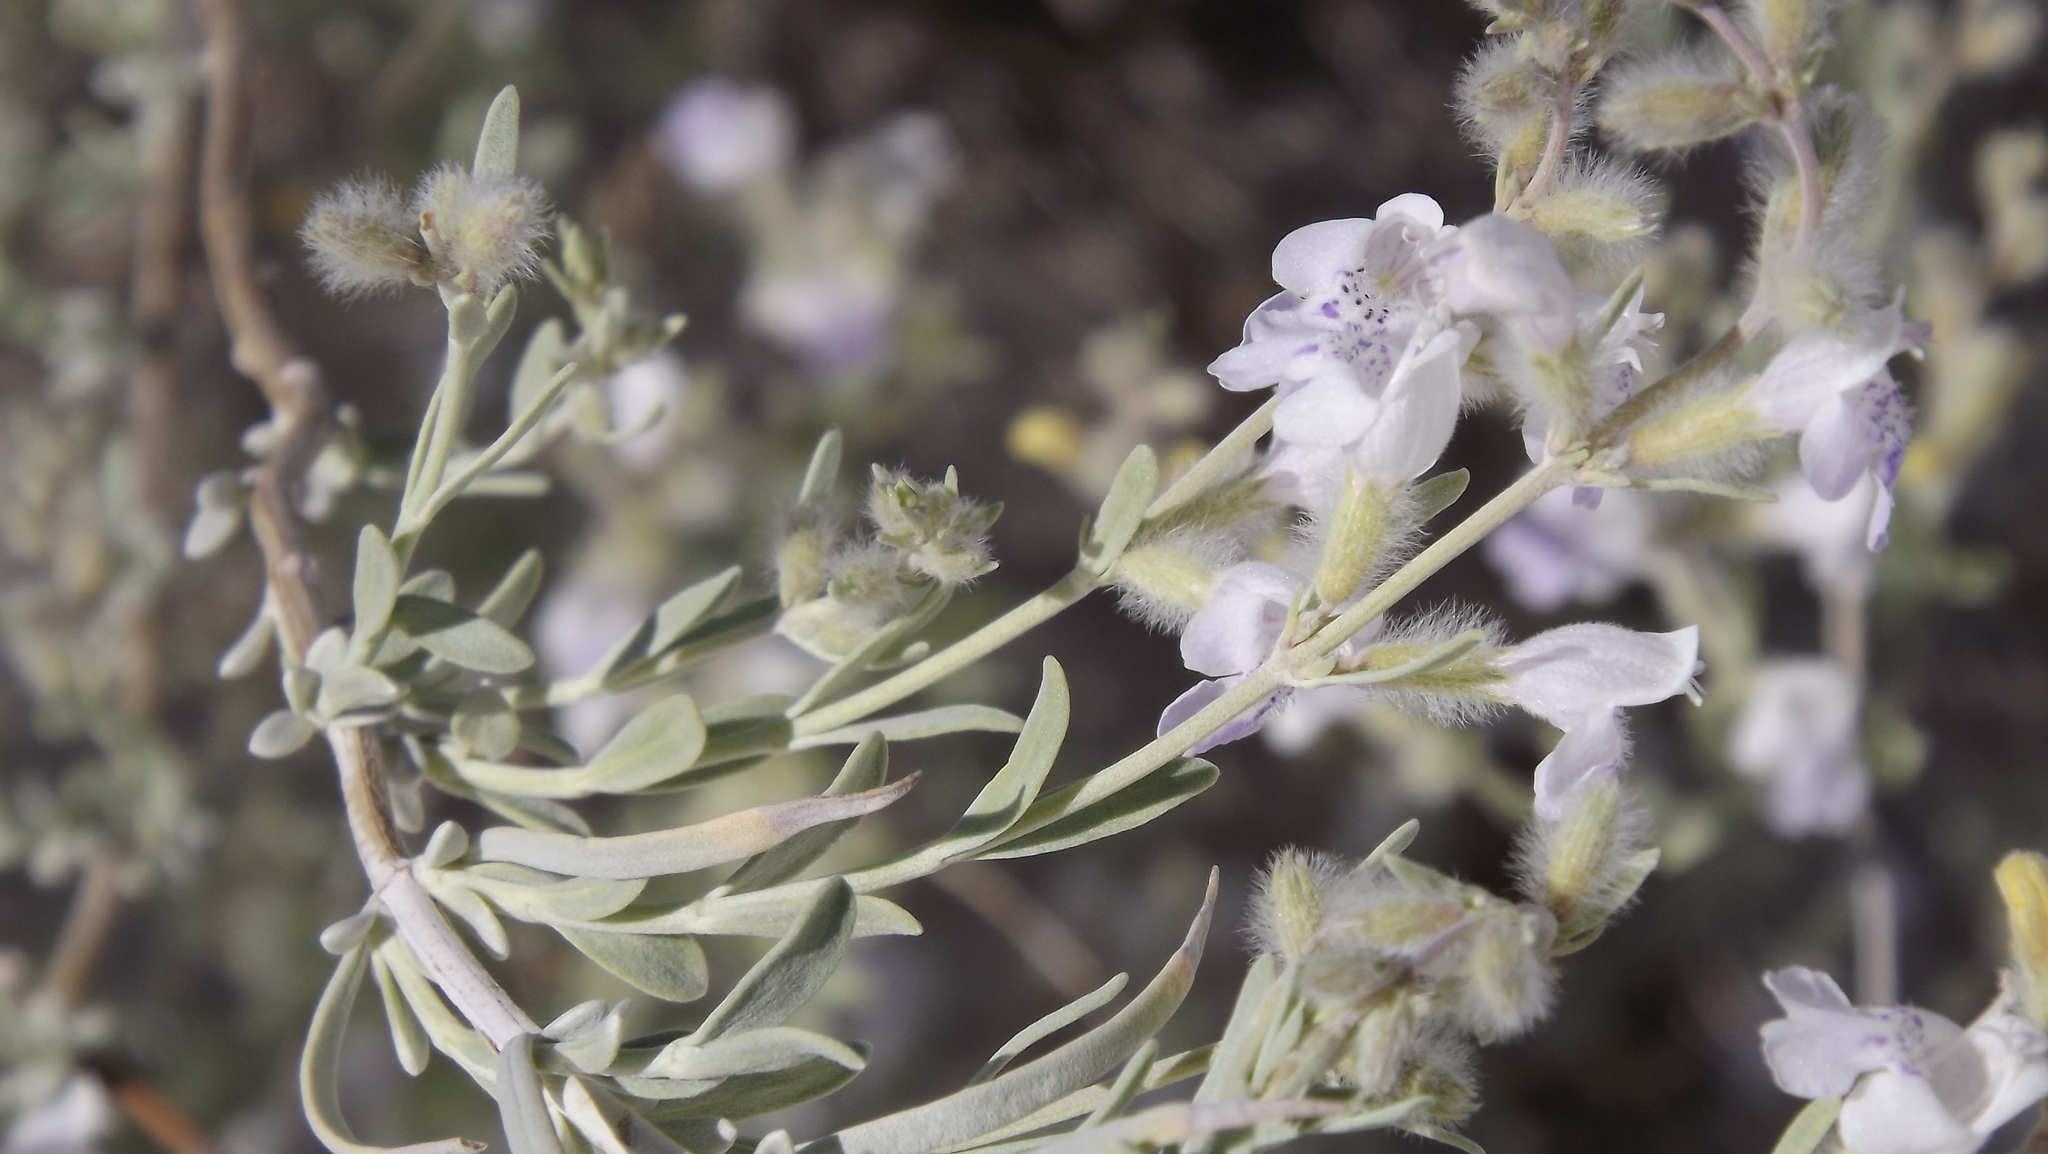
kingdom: Plantae
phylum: Tracheophyta
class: Magnoliopsida
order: Lamiales
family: Lamiaceae
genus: Poliomintha
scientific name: Poliomintha incana
